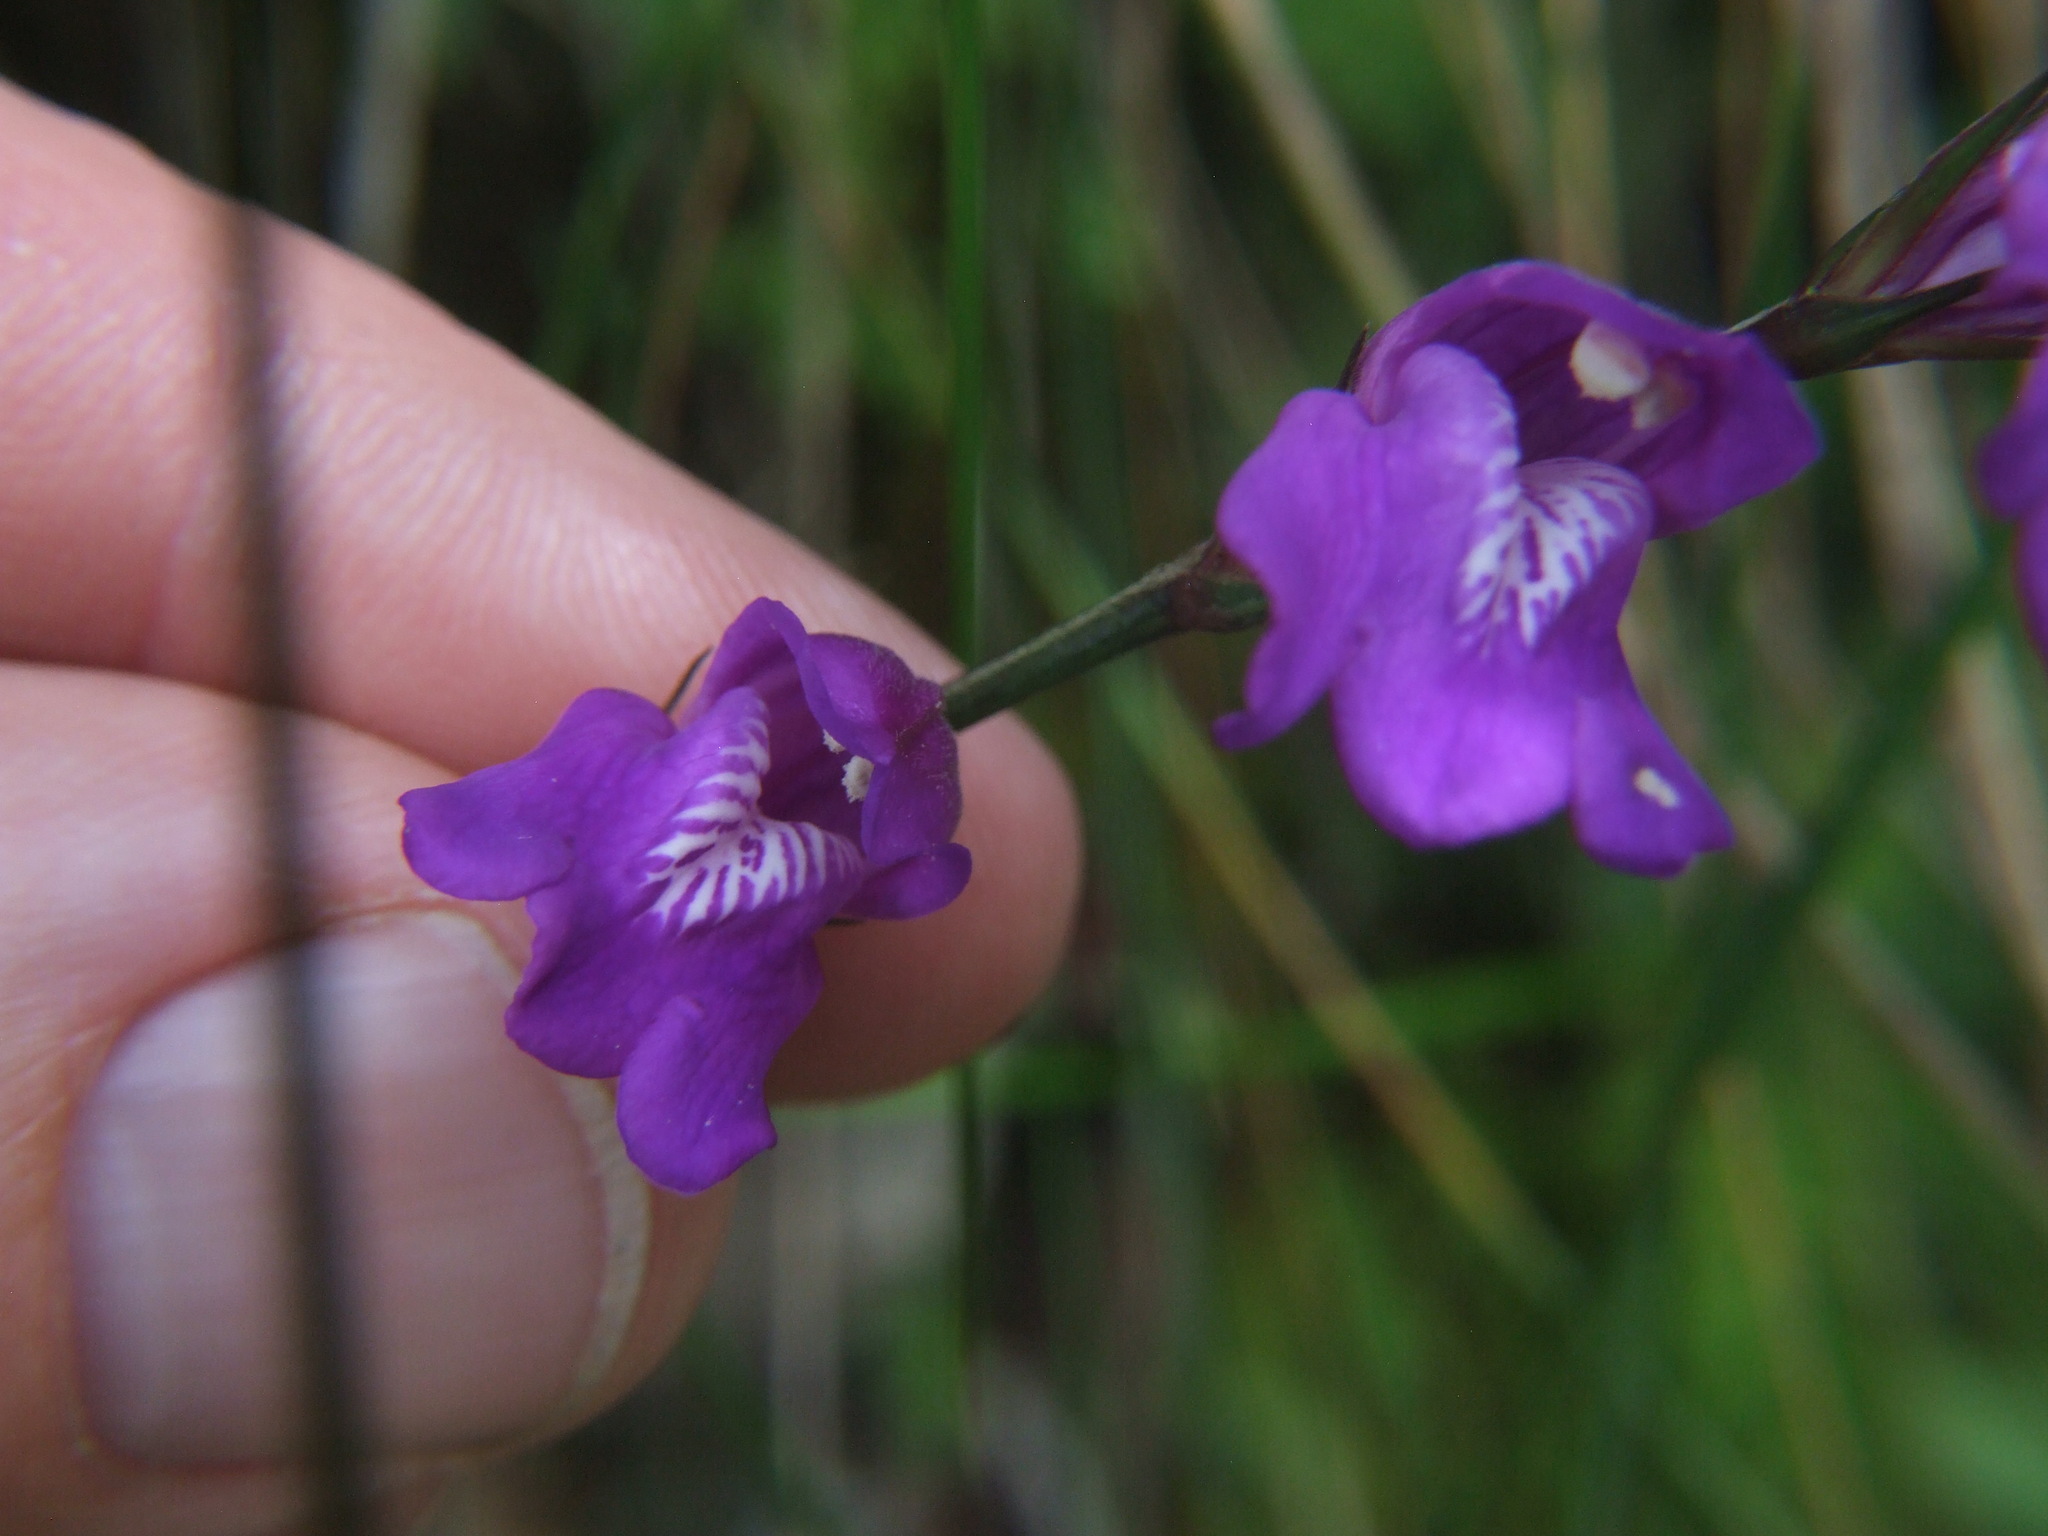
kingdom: Plantae
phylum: Tracheophyta
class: Magnoliopsida
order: Lamiales
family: Acanthaceae
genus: Justicia
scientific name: Justicia alpina
